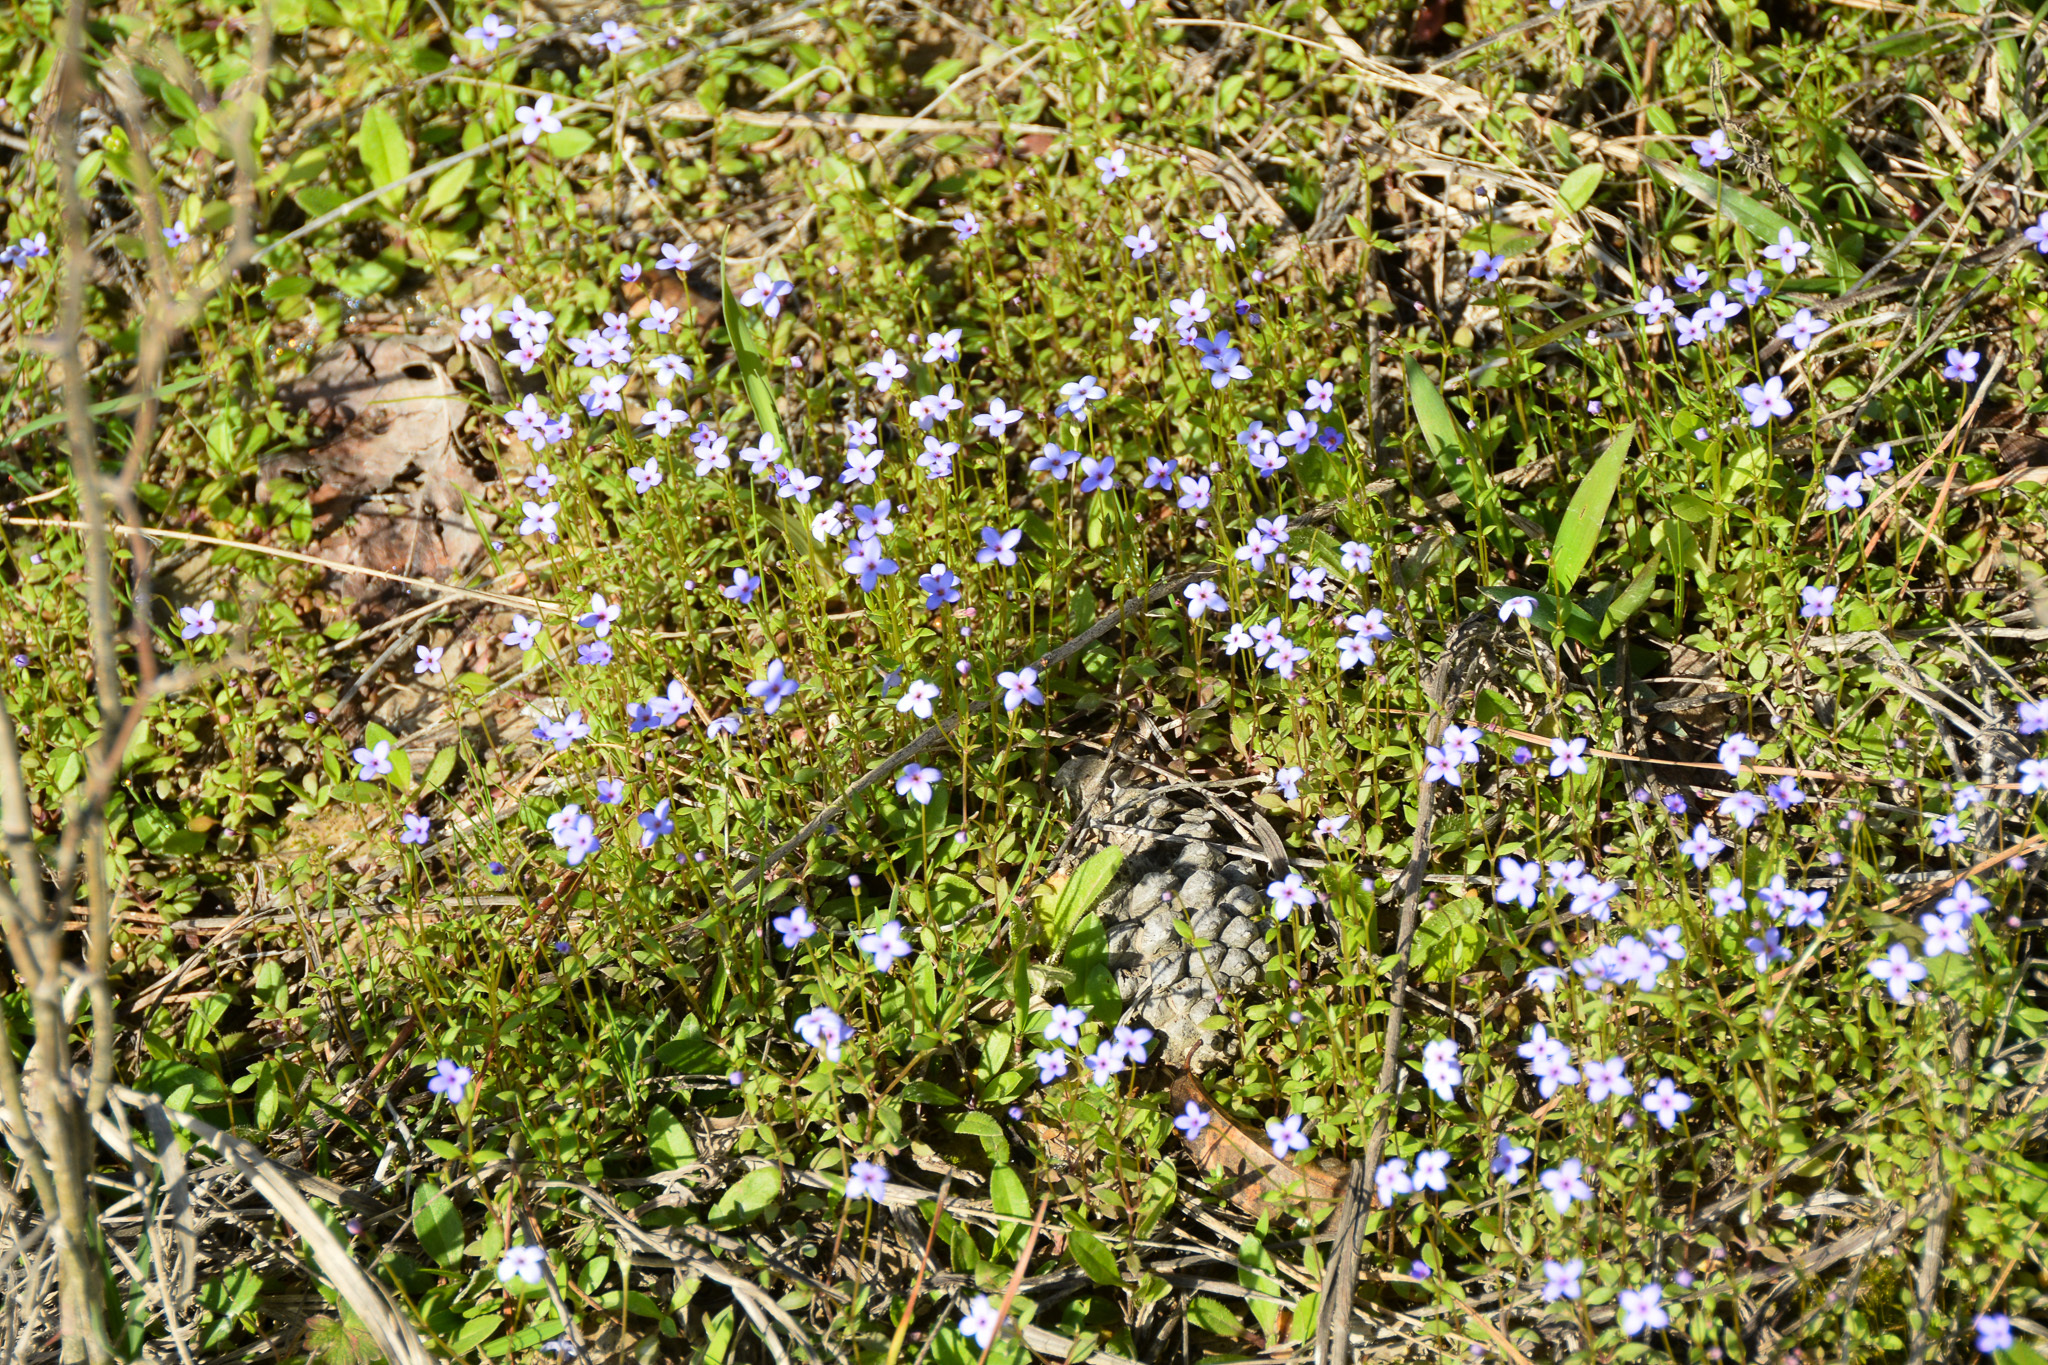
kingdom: Plantae
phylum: Tracheophyta
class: Magnoliopsida
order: Gentianales
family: Rubiaceae
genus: Houstonia
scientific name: Houstonia pusilla
